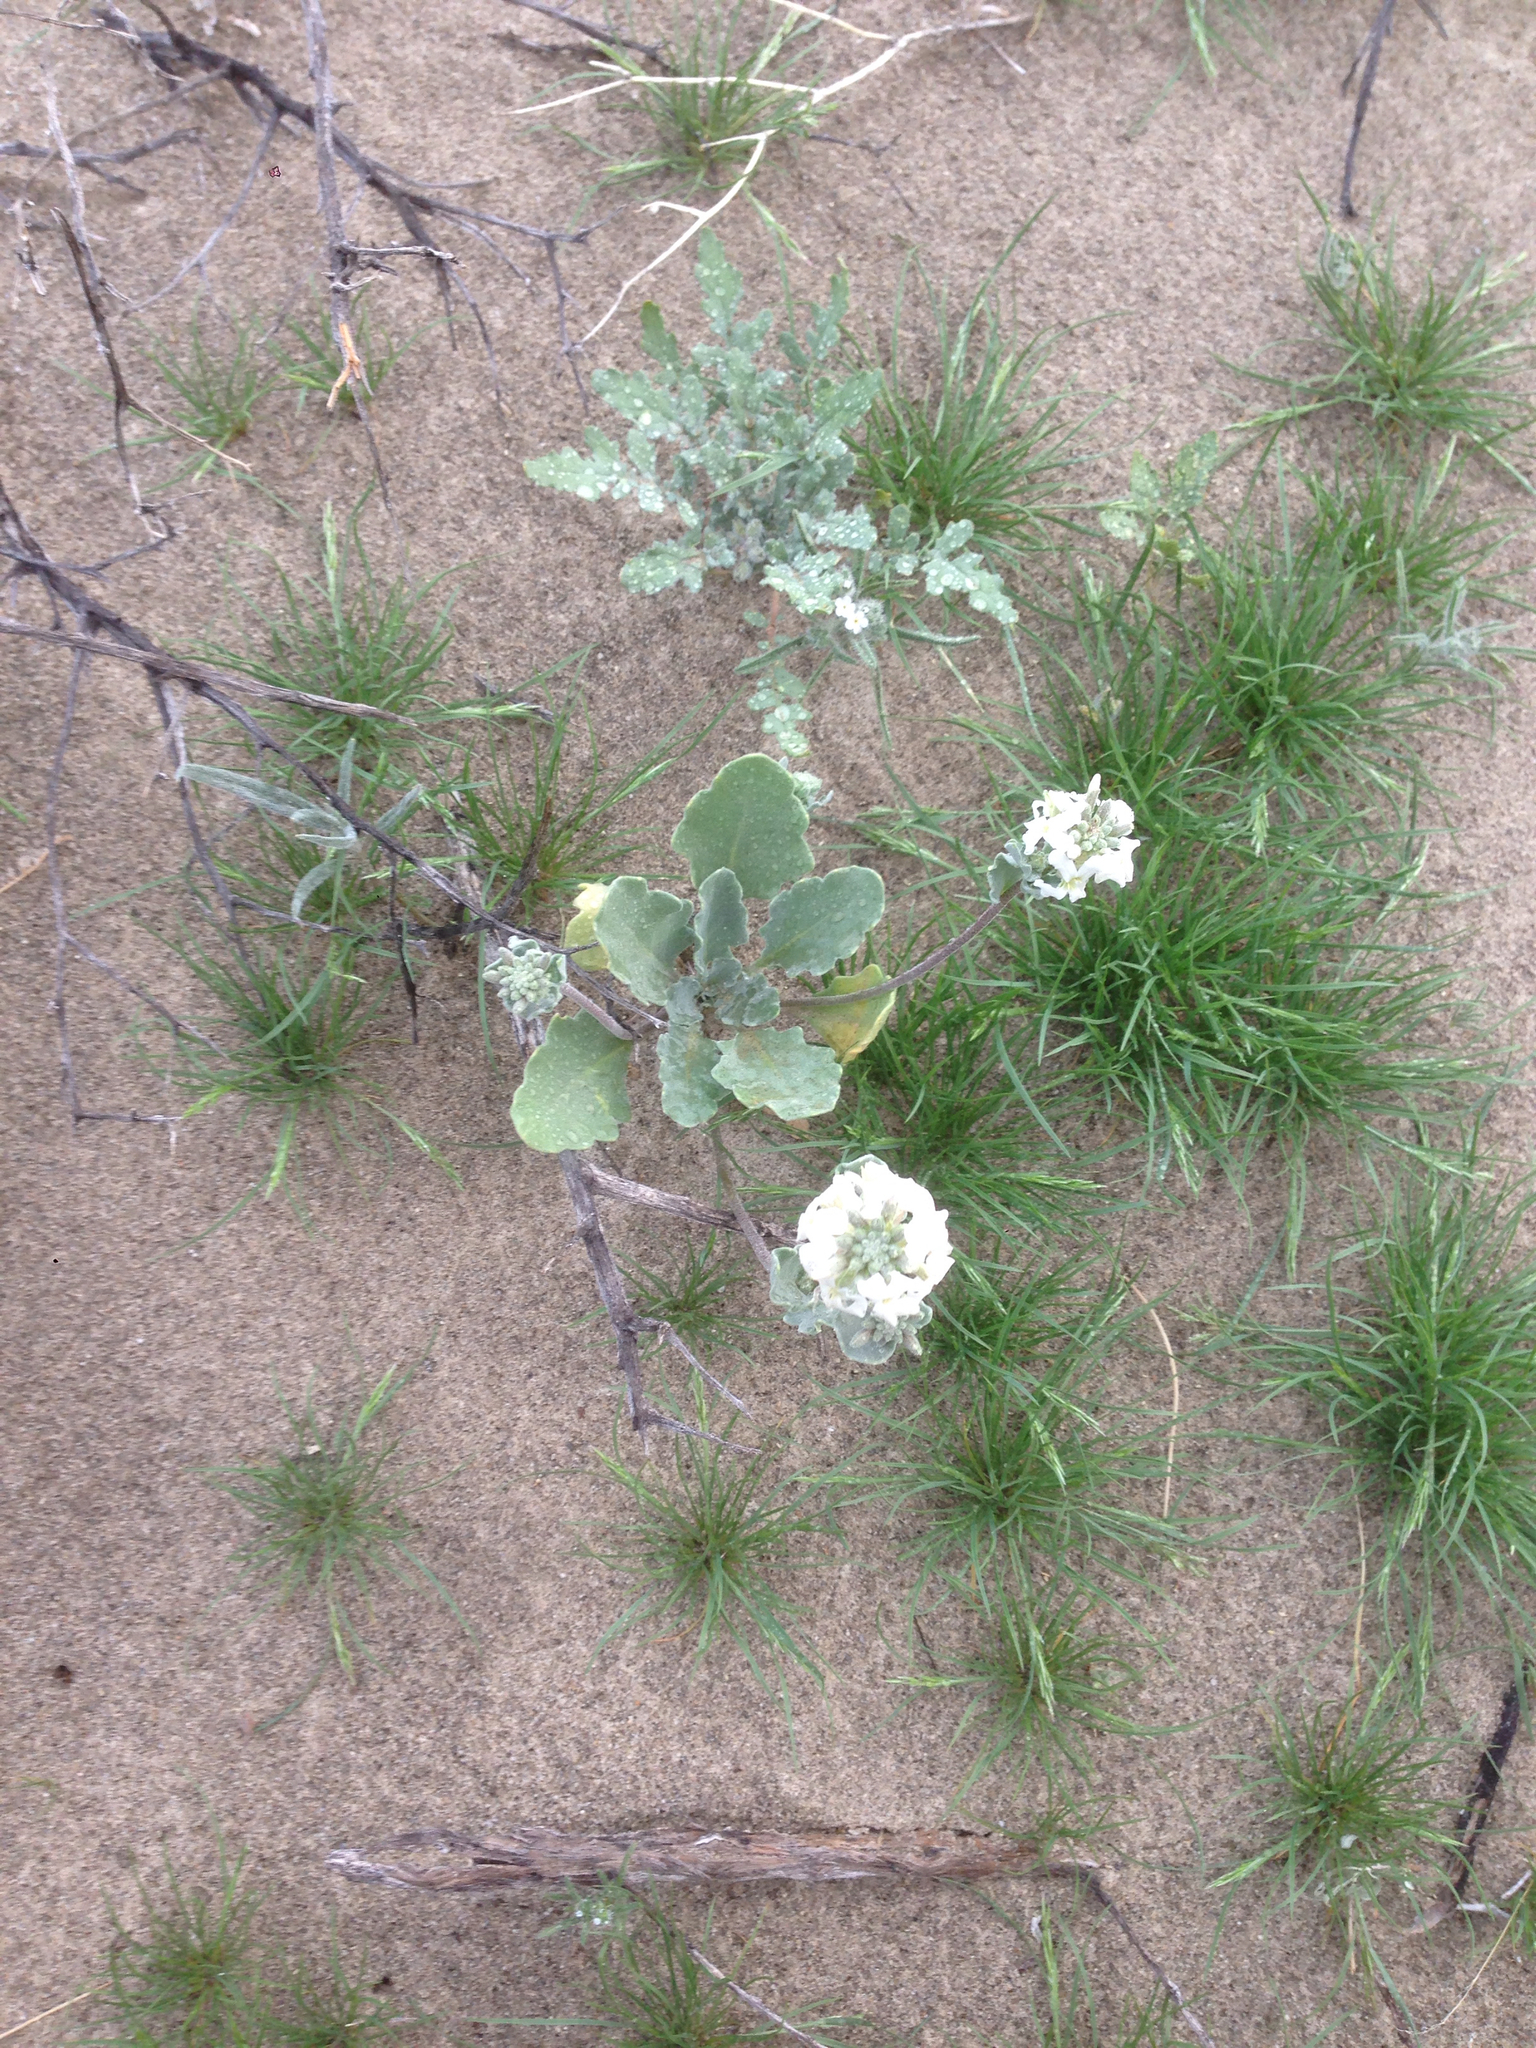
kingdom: Plantae
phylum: Tracheophyta
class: Magnoliopsida
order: Brassicales
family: Brassicaceae
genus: Dithyrea
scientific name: Dithyrea californica
